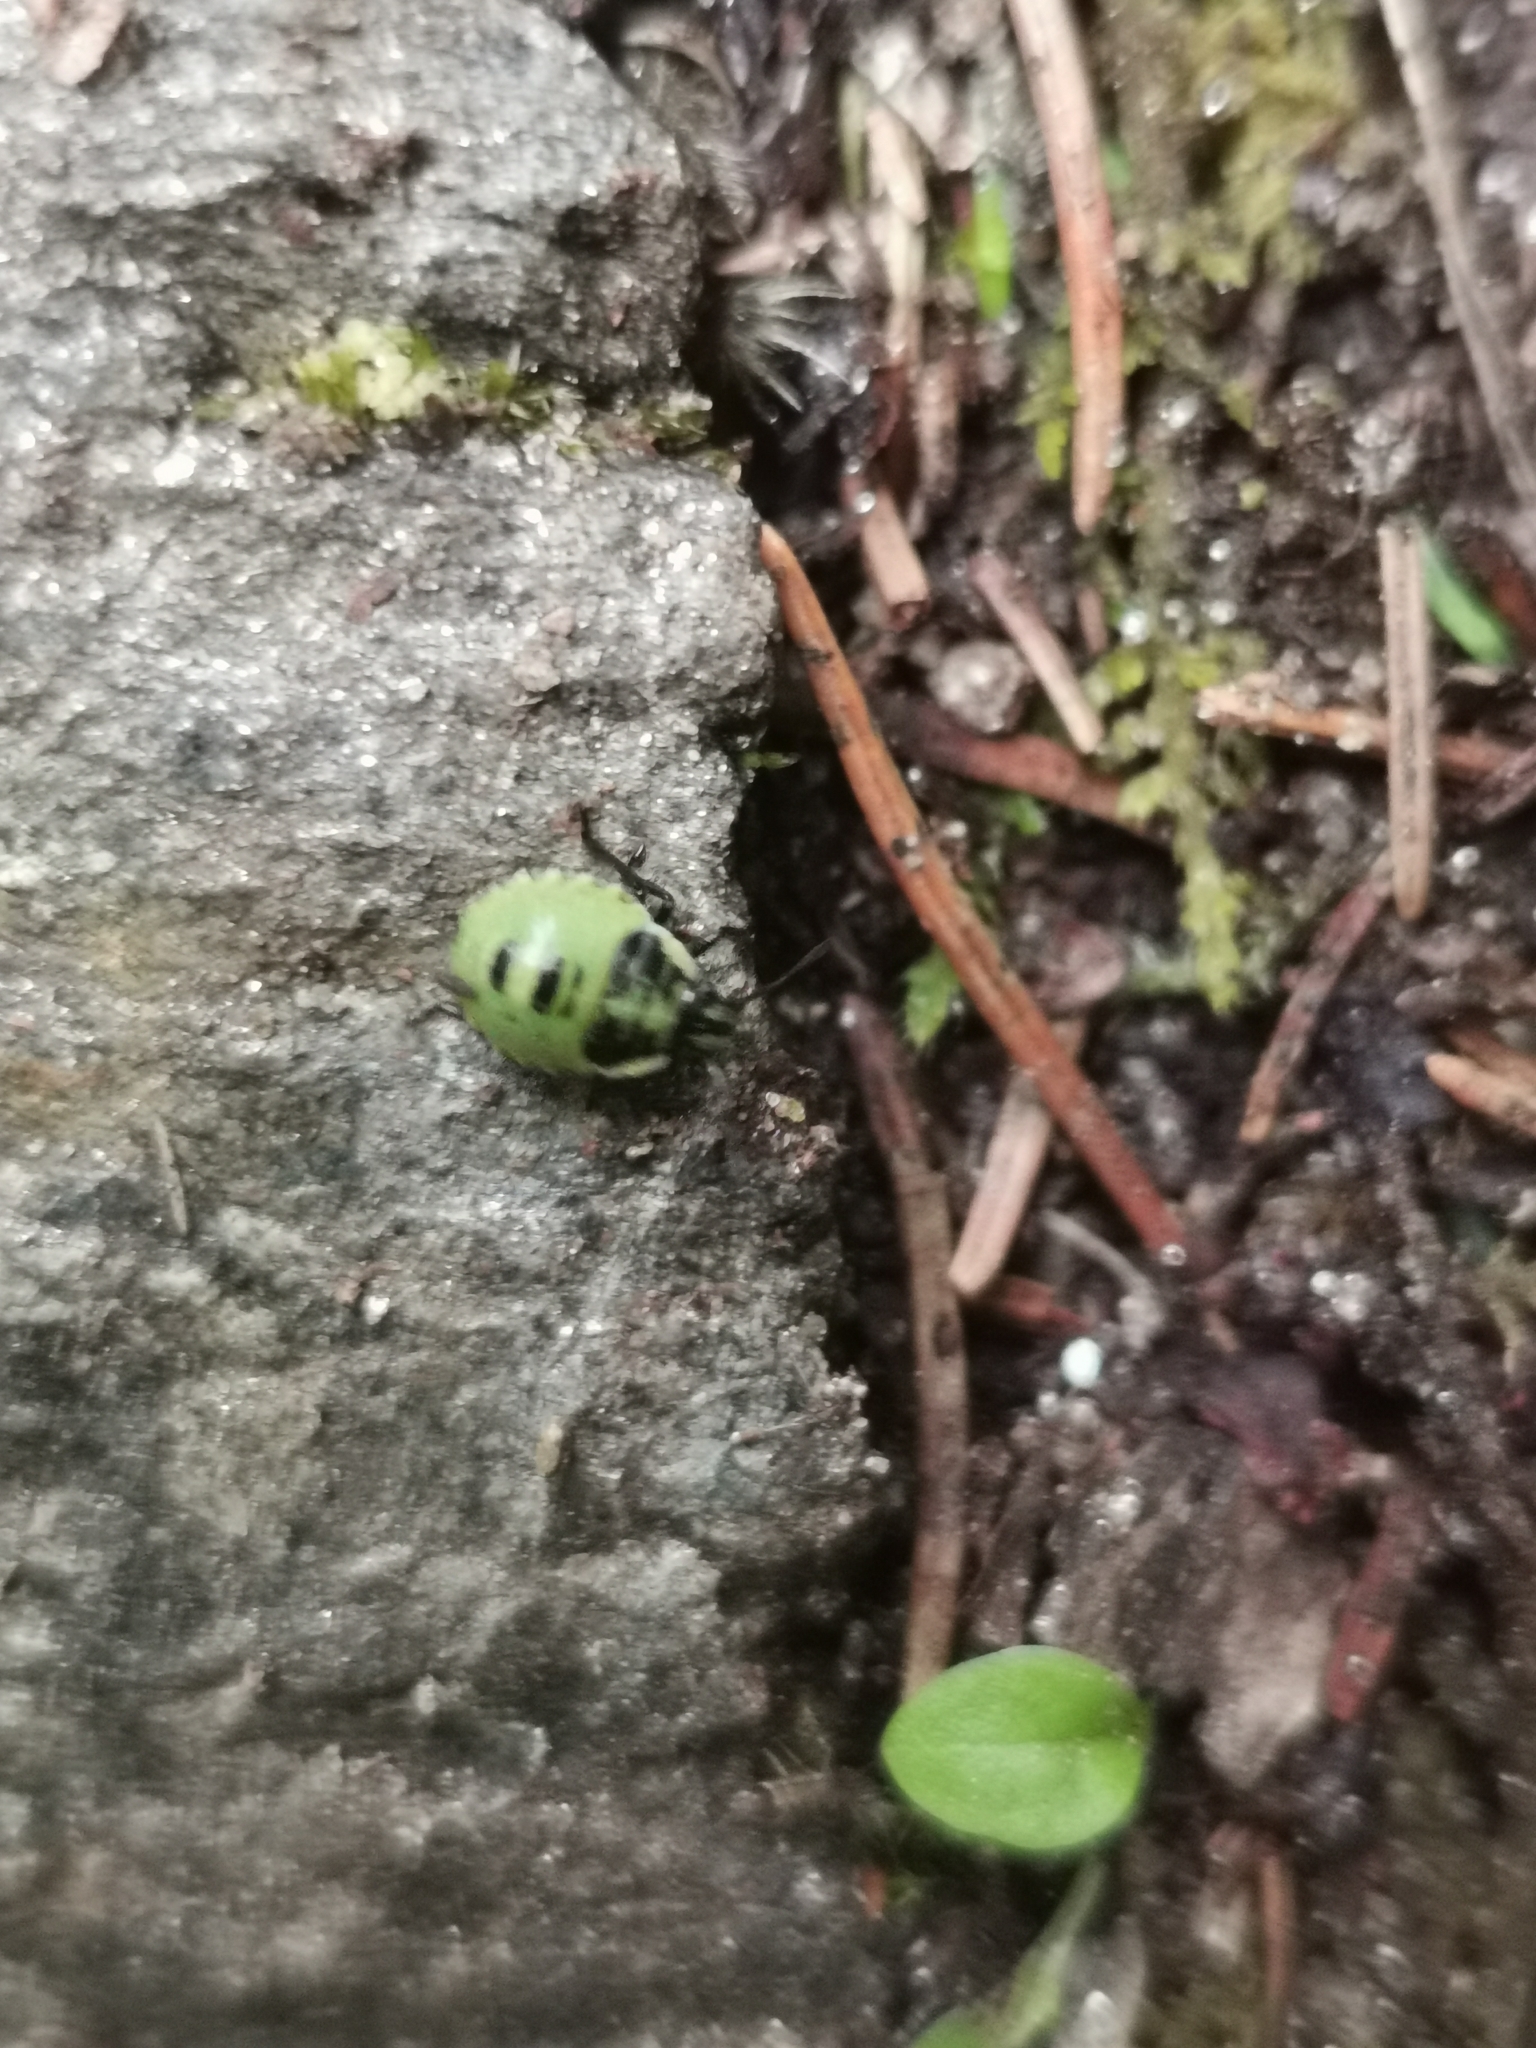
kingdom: Animalia
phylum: Arthropoda
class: Insecta
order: Hemiptera
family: Pentatomidae
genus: Palomena
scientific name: Palomena prasina
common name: Green shieldbug
